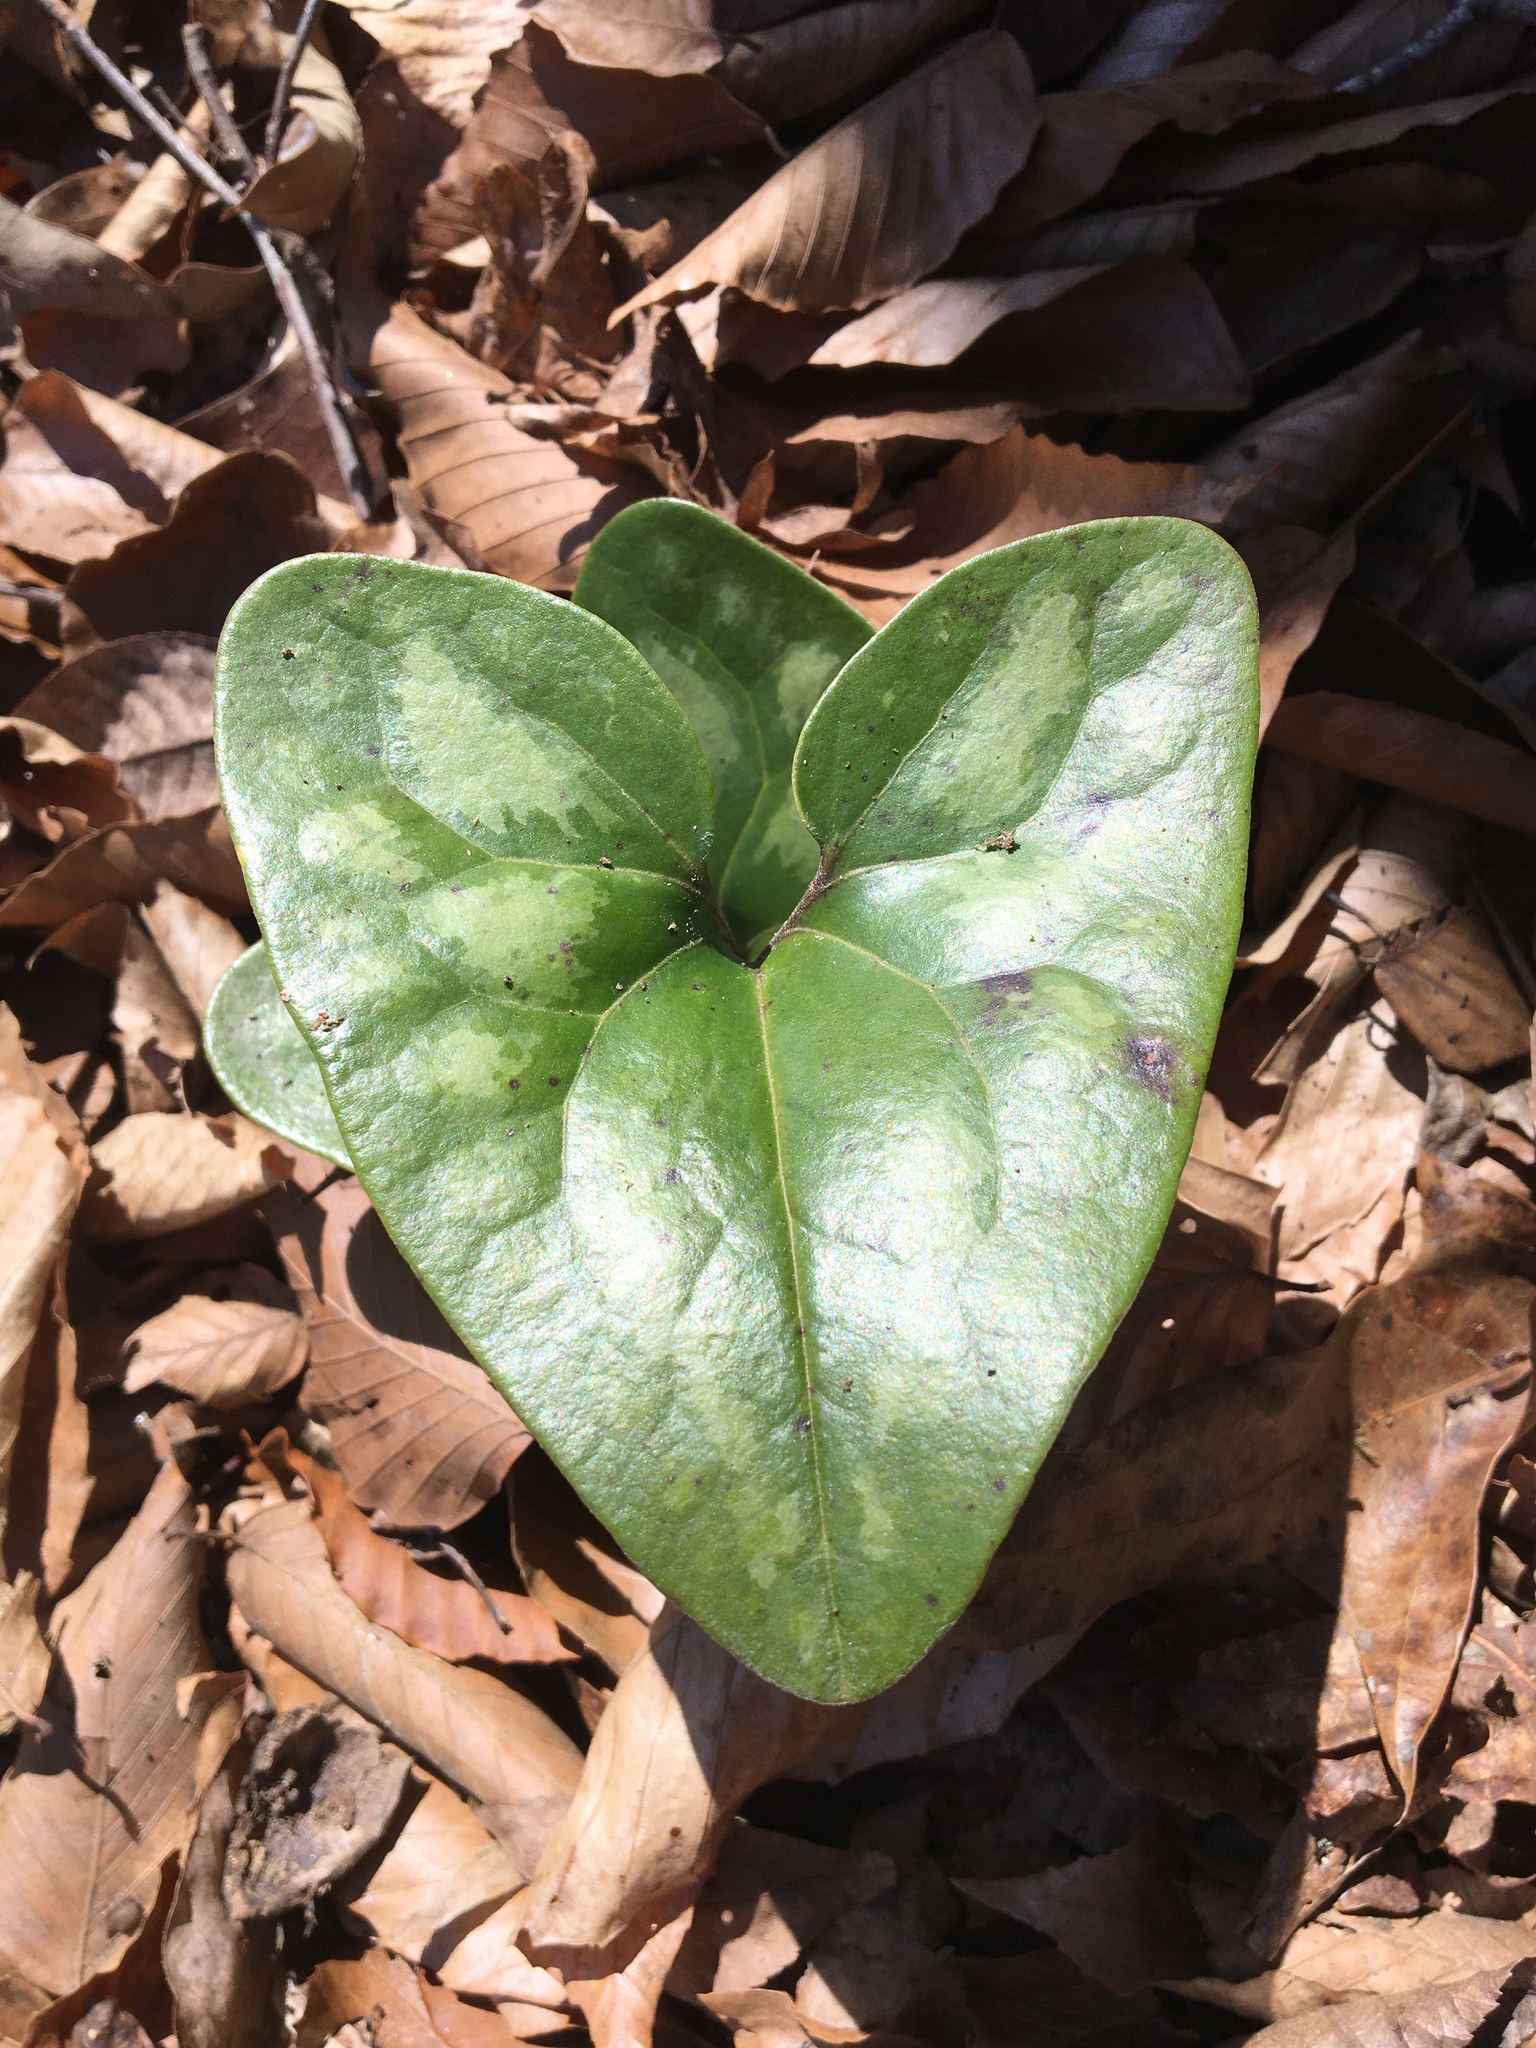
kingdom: Plantae
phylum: Tracheophyta
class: Magnoliopsida
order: Piperales
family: Aristolochiaceae
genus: Hexastylis
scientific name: Hexastylis arifolia
